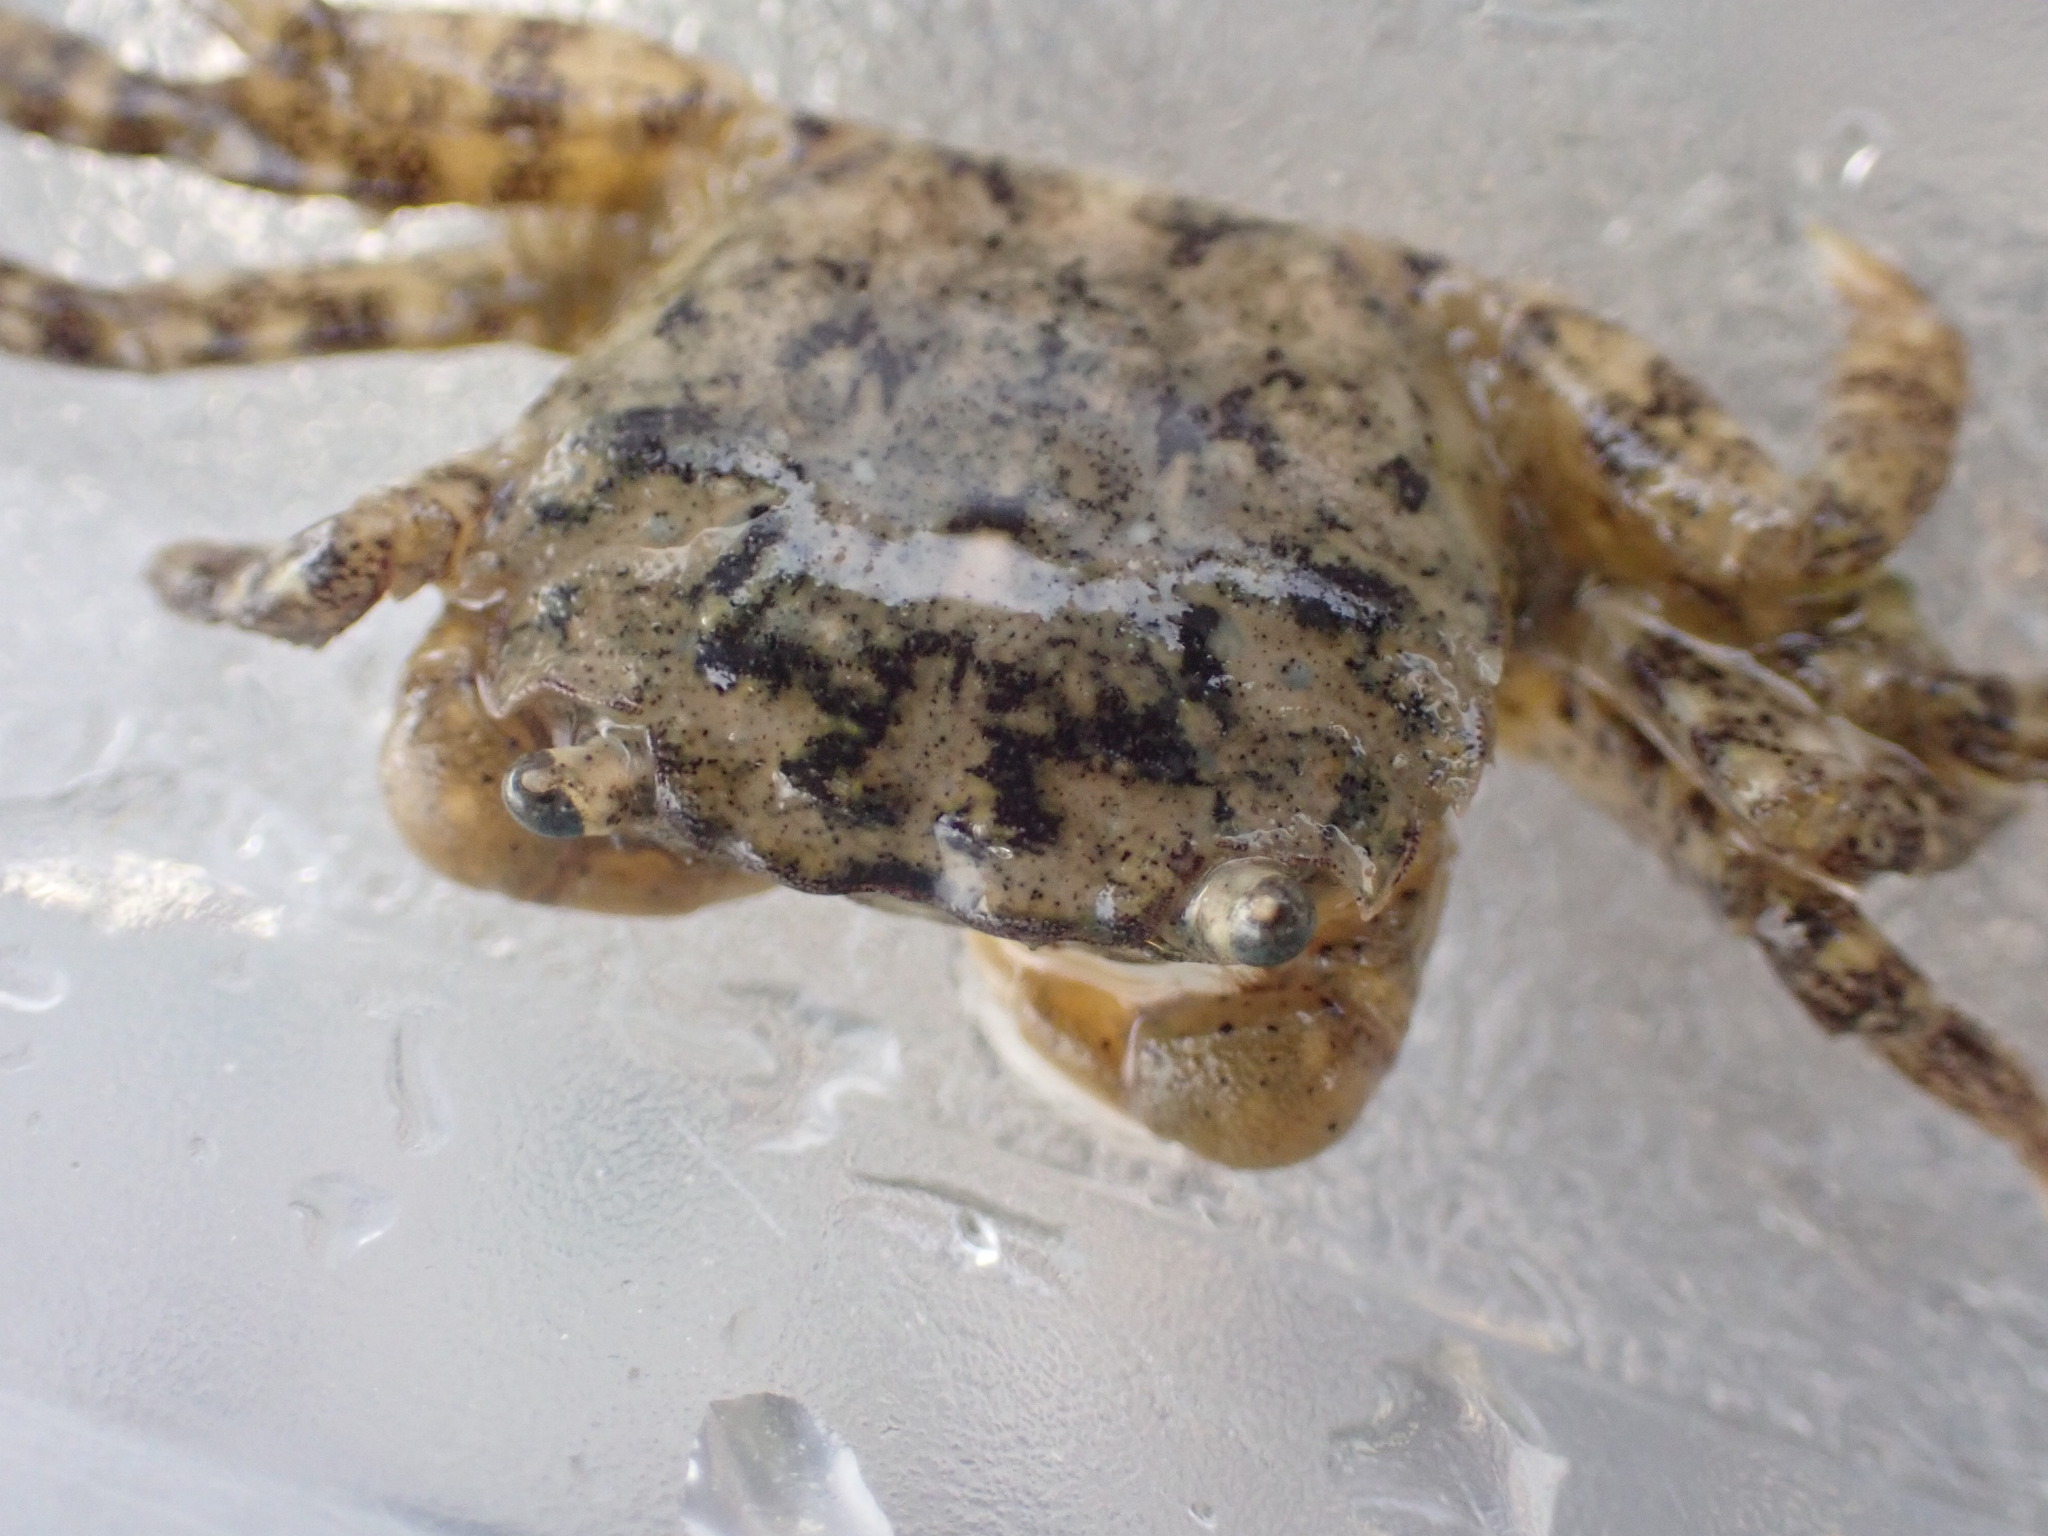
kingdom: Animalia
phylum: Arthropoda
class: Malacostraca
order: Decapoda
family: Varunidae
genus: Hemigrapsus
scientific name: Hemigrapsus oregonensis
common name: Yellow shore crab
